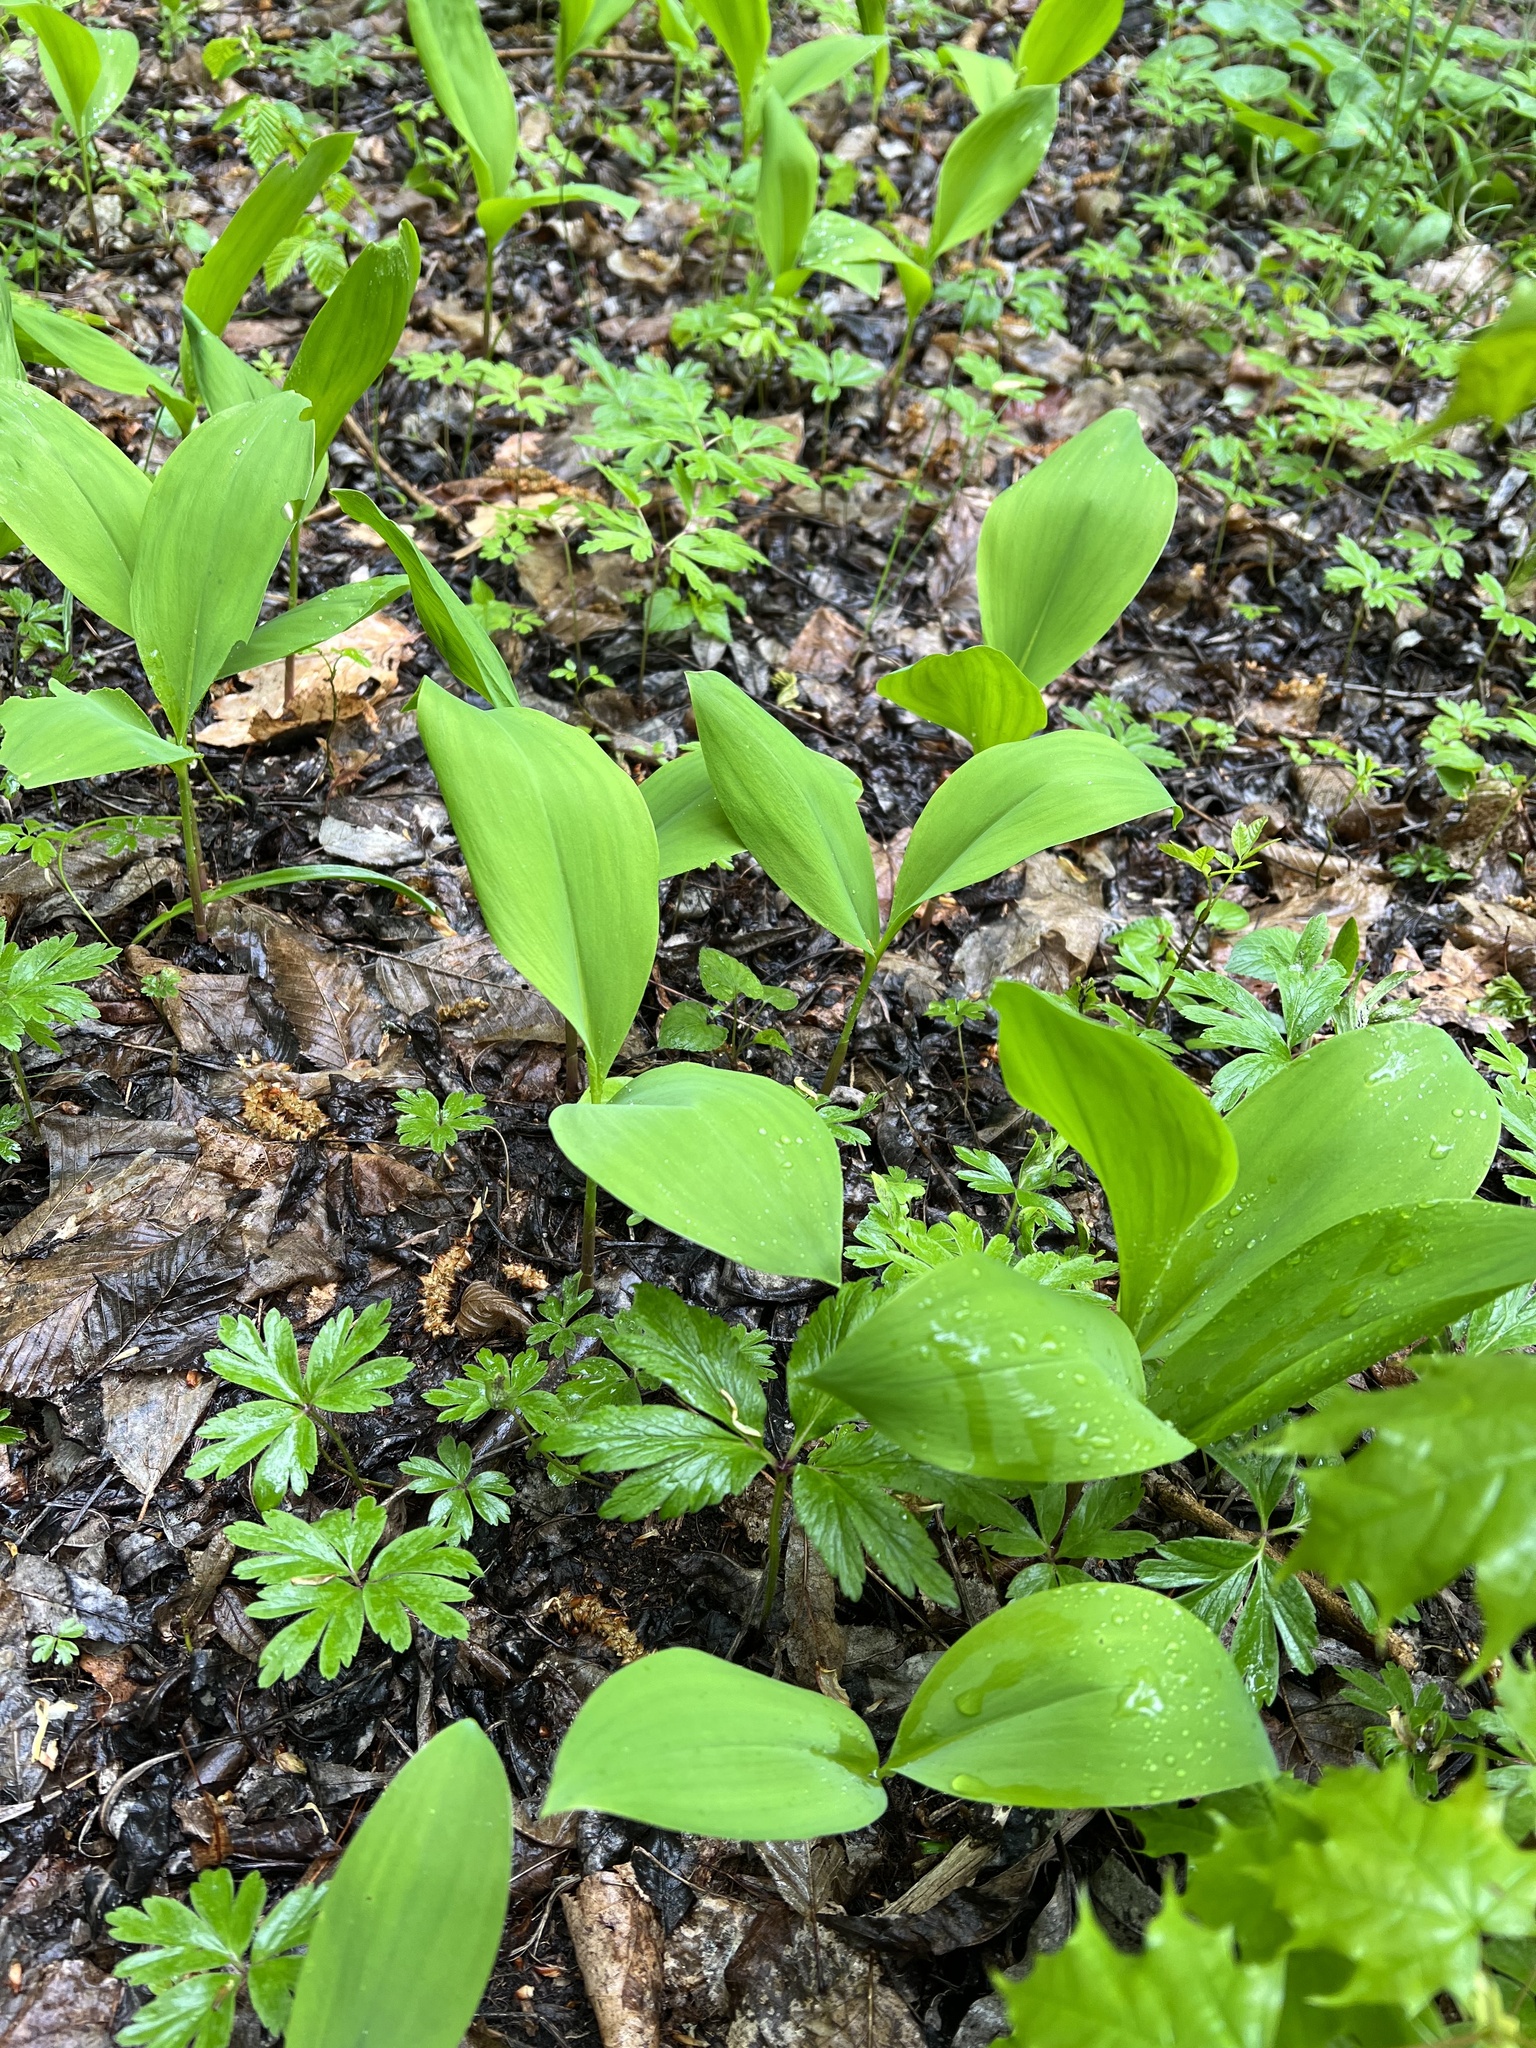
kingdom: Plantae
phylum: Tracheophyta
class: Liliopsida
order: Asparagales
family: Asparagaceae
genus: Convallaria
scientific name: Convallaria majalis
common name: Lily-of-the-valley
